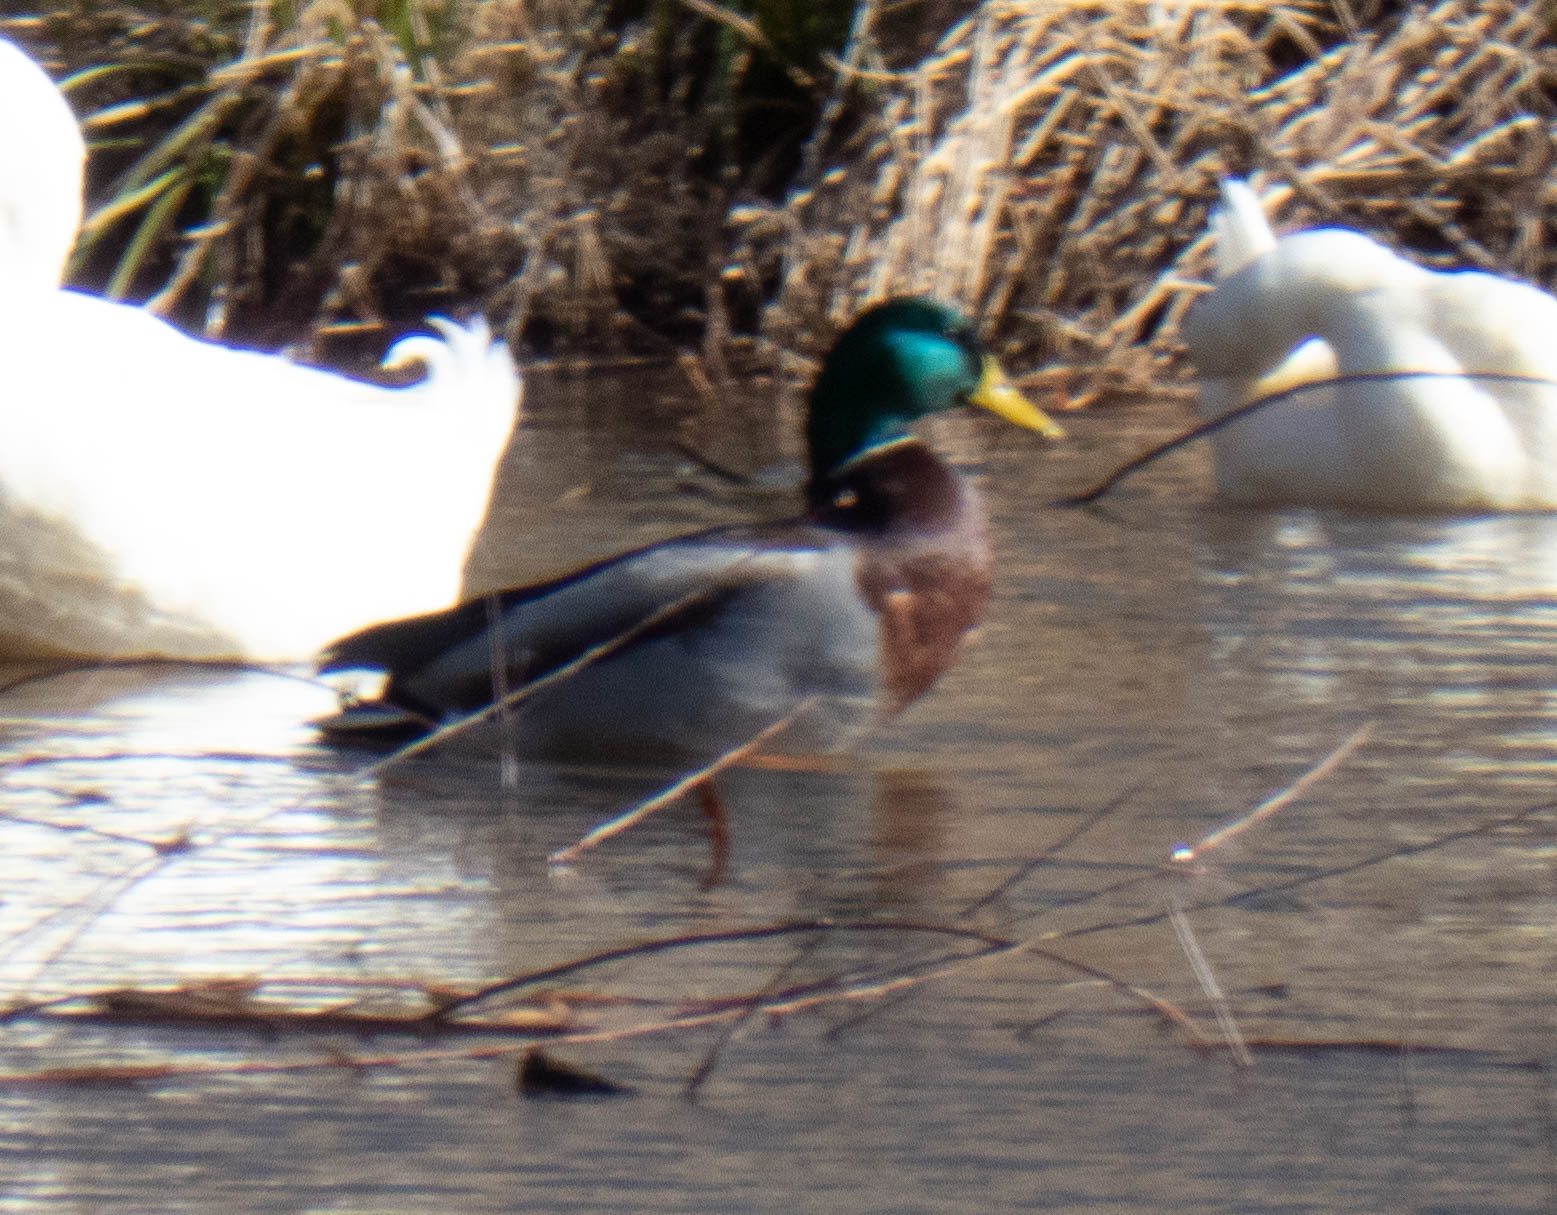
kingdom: Animalia
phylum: Chordata
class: Aves
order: Anseriformes
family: Anatidae
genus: Anas
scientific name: Anas platyrhynchos
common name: Mallard
